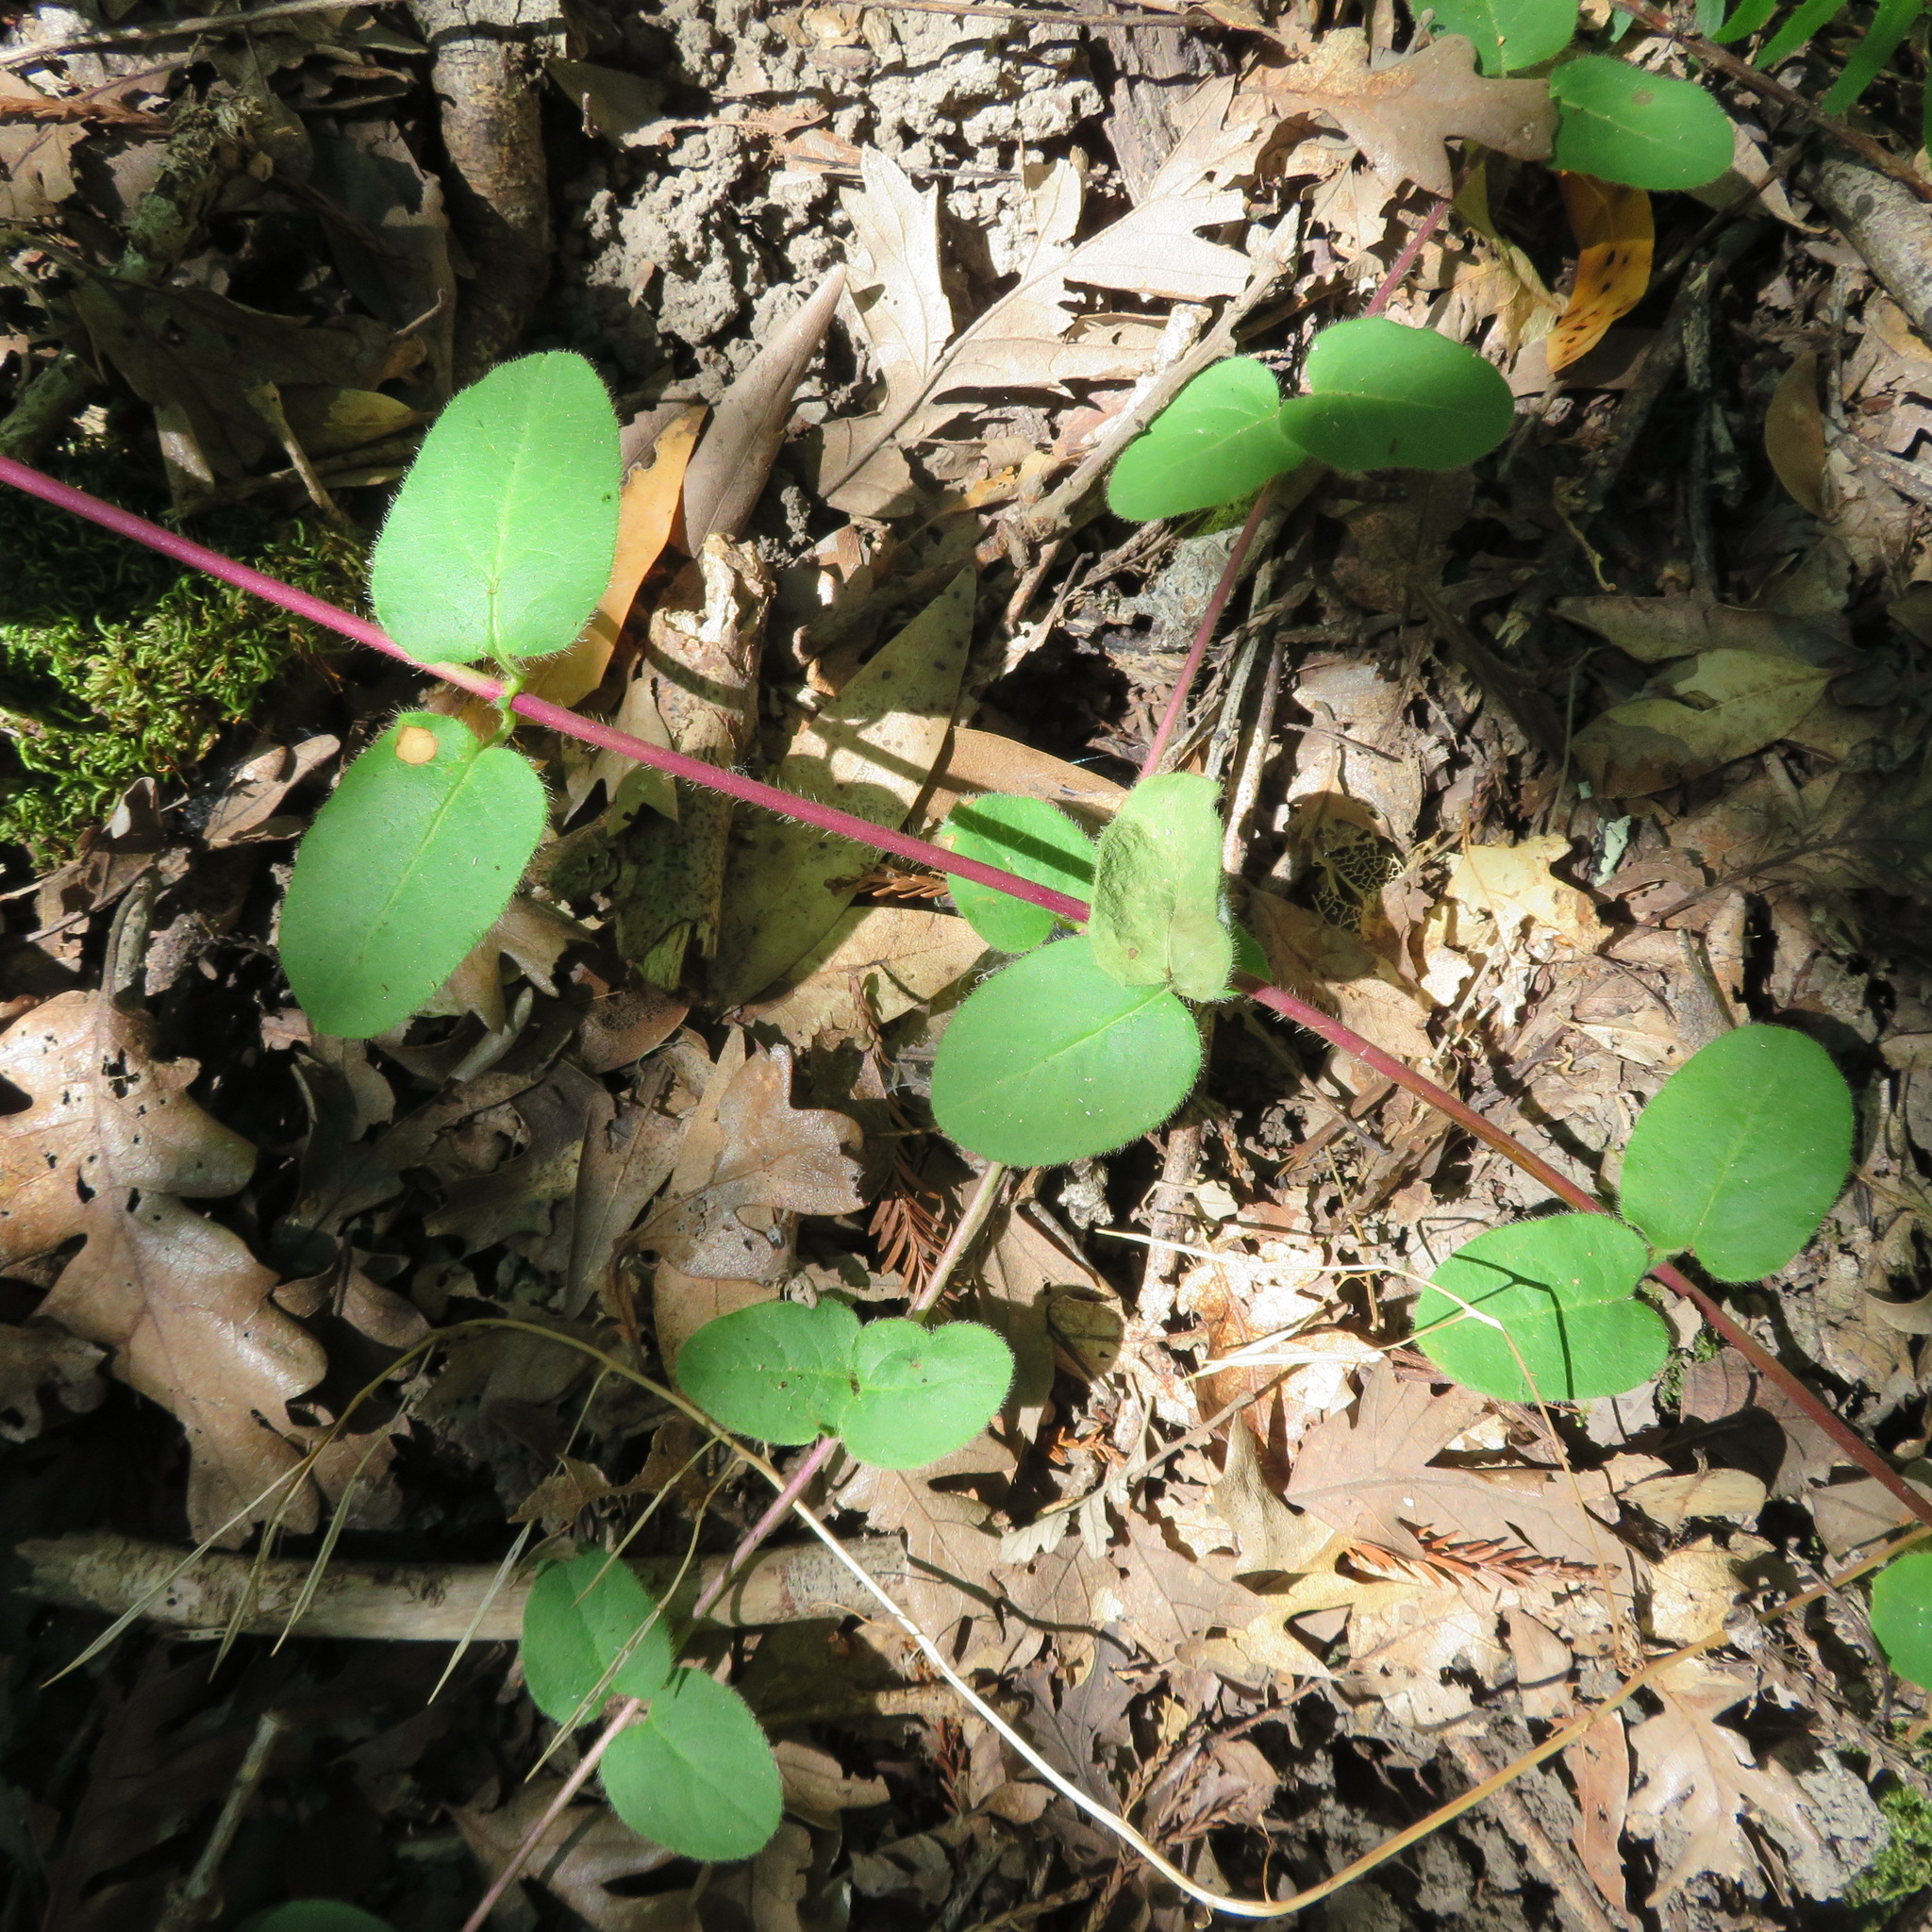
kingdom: Plantae
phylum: Tracheophyta
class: Magnoliopsida
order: Dipsacales
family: Caprifoliaceae
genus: Lonicera
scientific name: Lonicera hispidula
